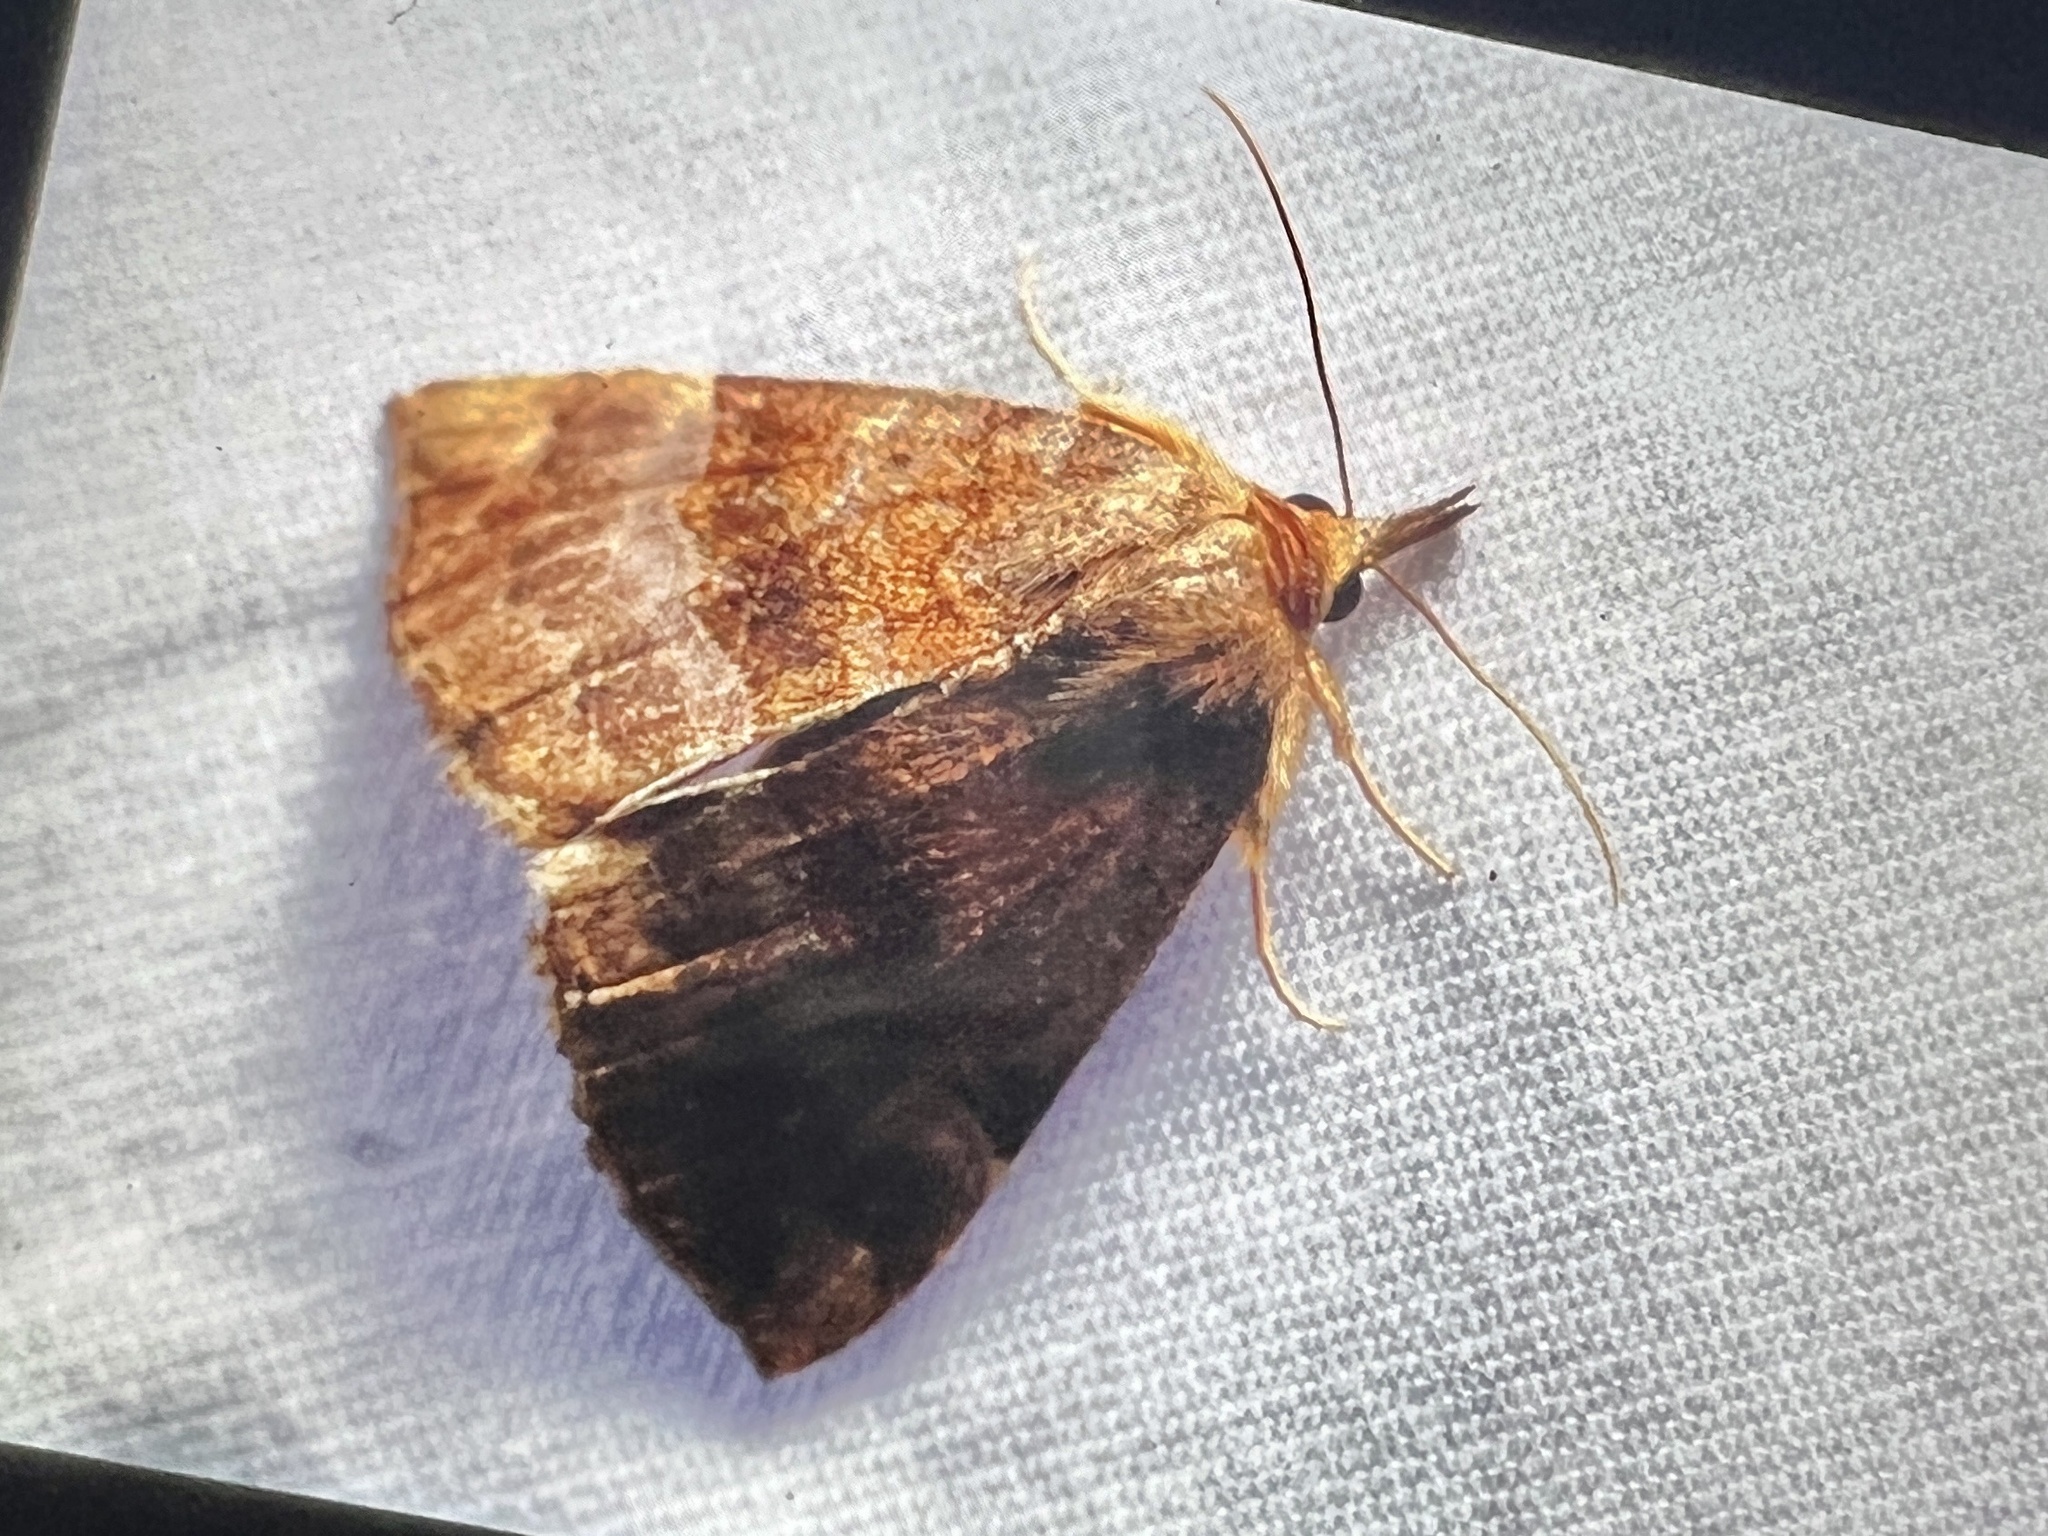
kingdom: Animalia
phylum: Arthropoda
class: Insecta
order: Lepidoptera
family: Erebidae
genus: Hypena
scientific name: Hypena madefactalis
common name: Gray-edged snout
